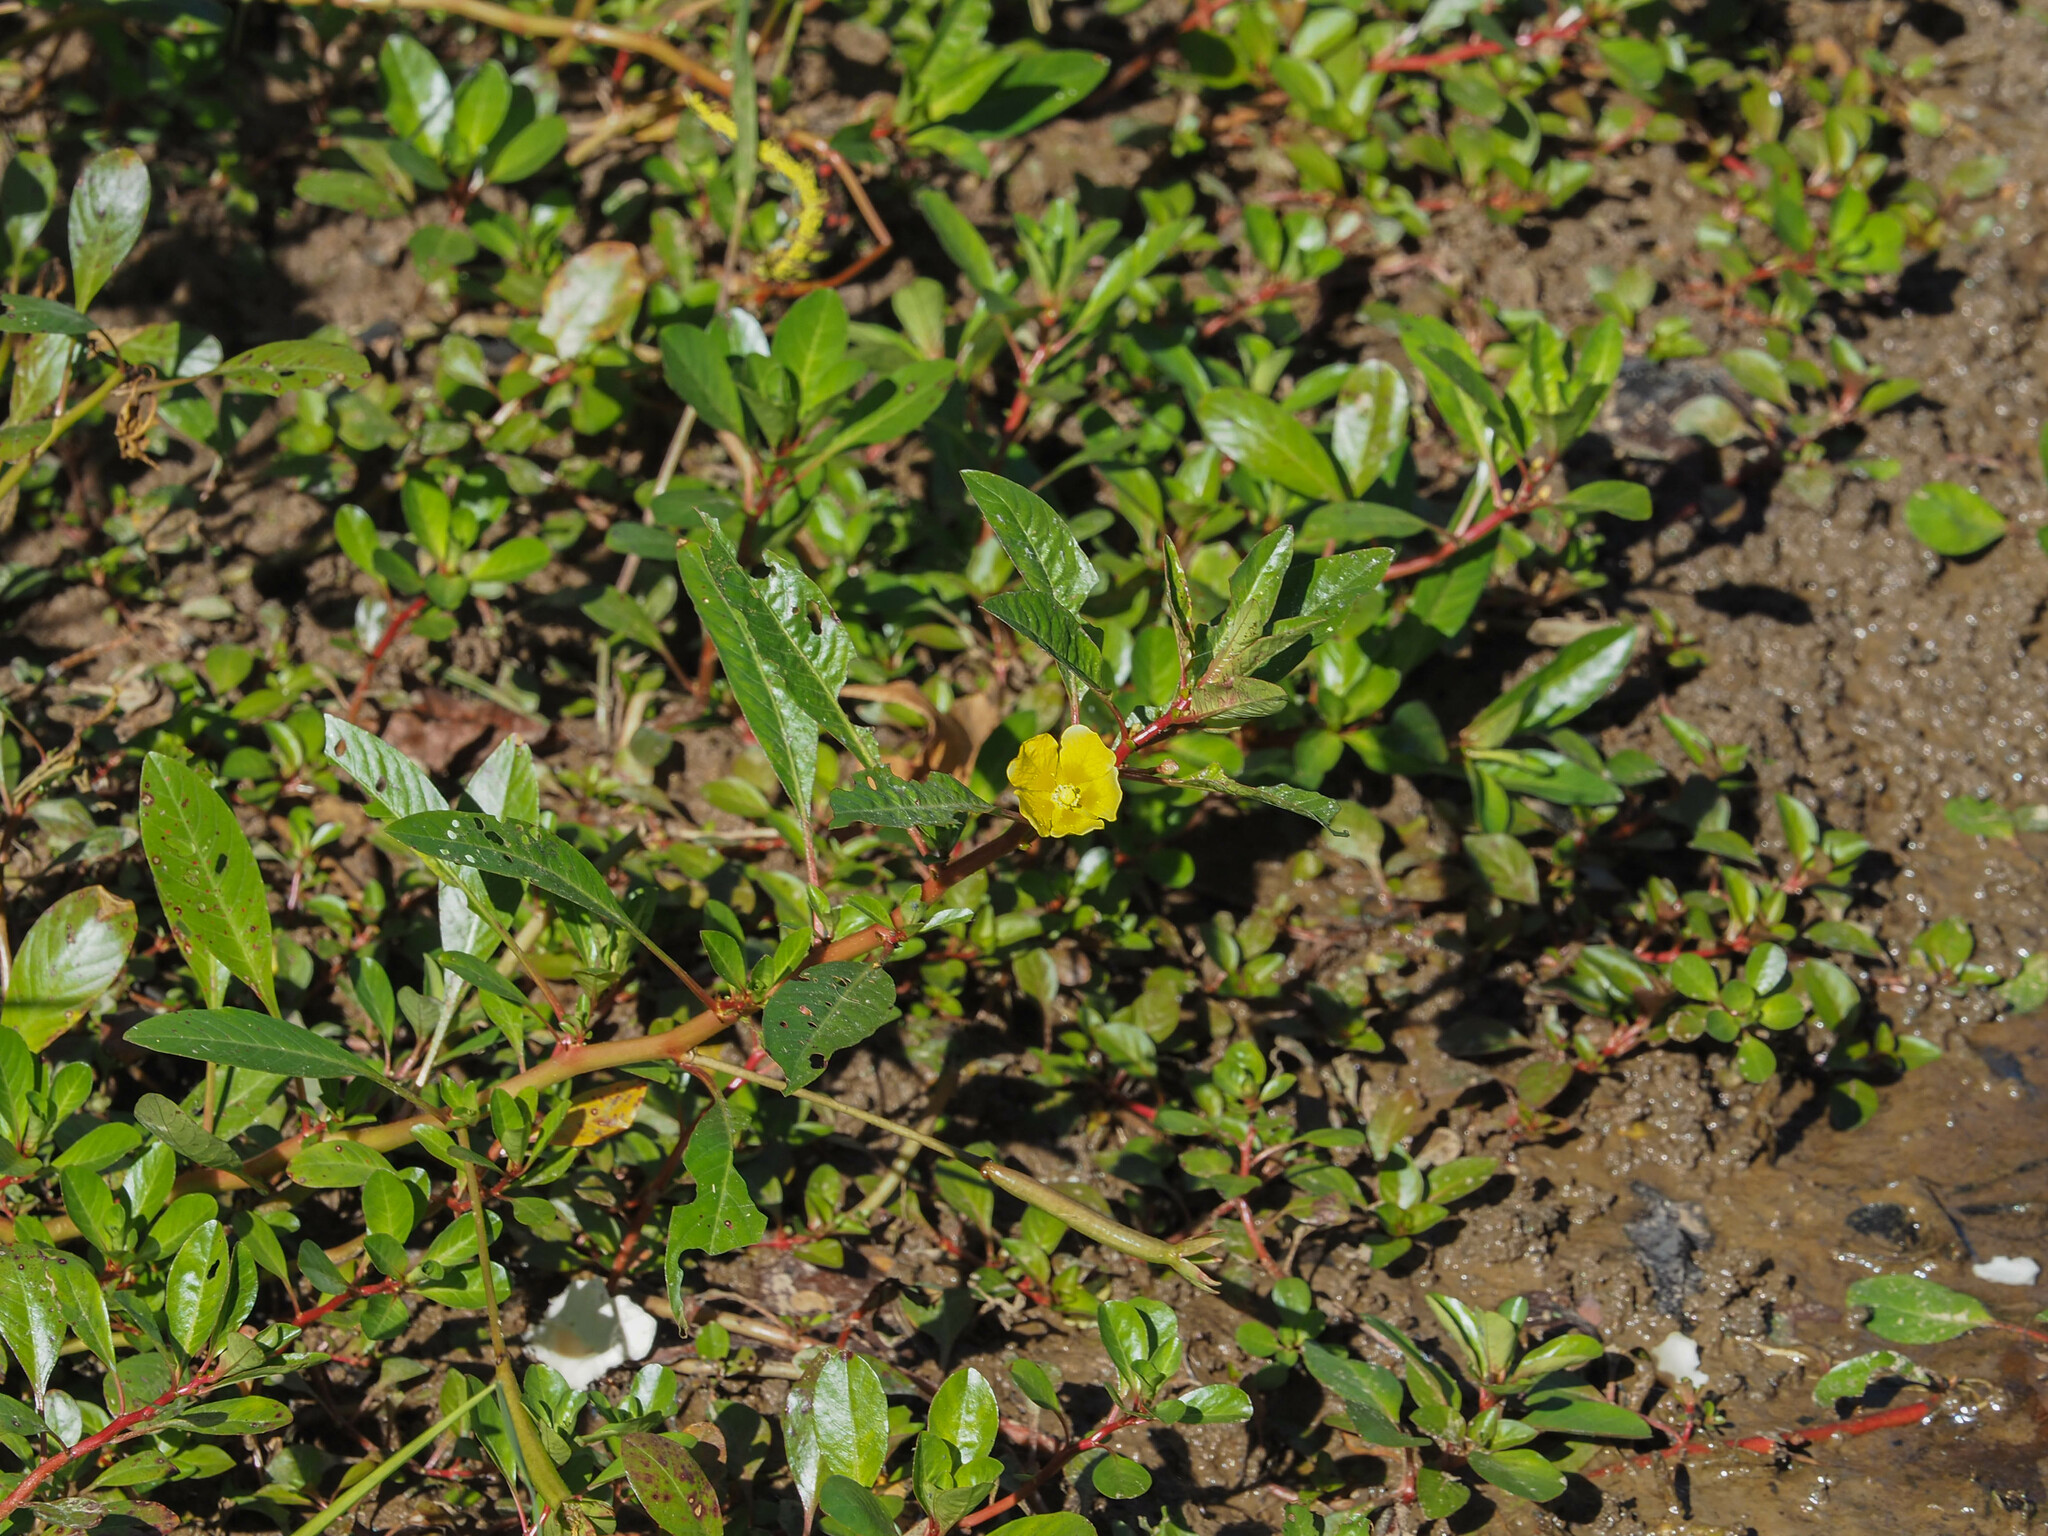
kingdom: Plantae
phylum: Tracheophyta
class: Magnoliopsida
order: Myrtales
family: Onagraceae
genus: Ludwigia
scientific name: Ludwigia peploides
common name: Floating primrose-willow
